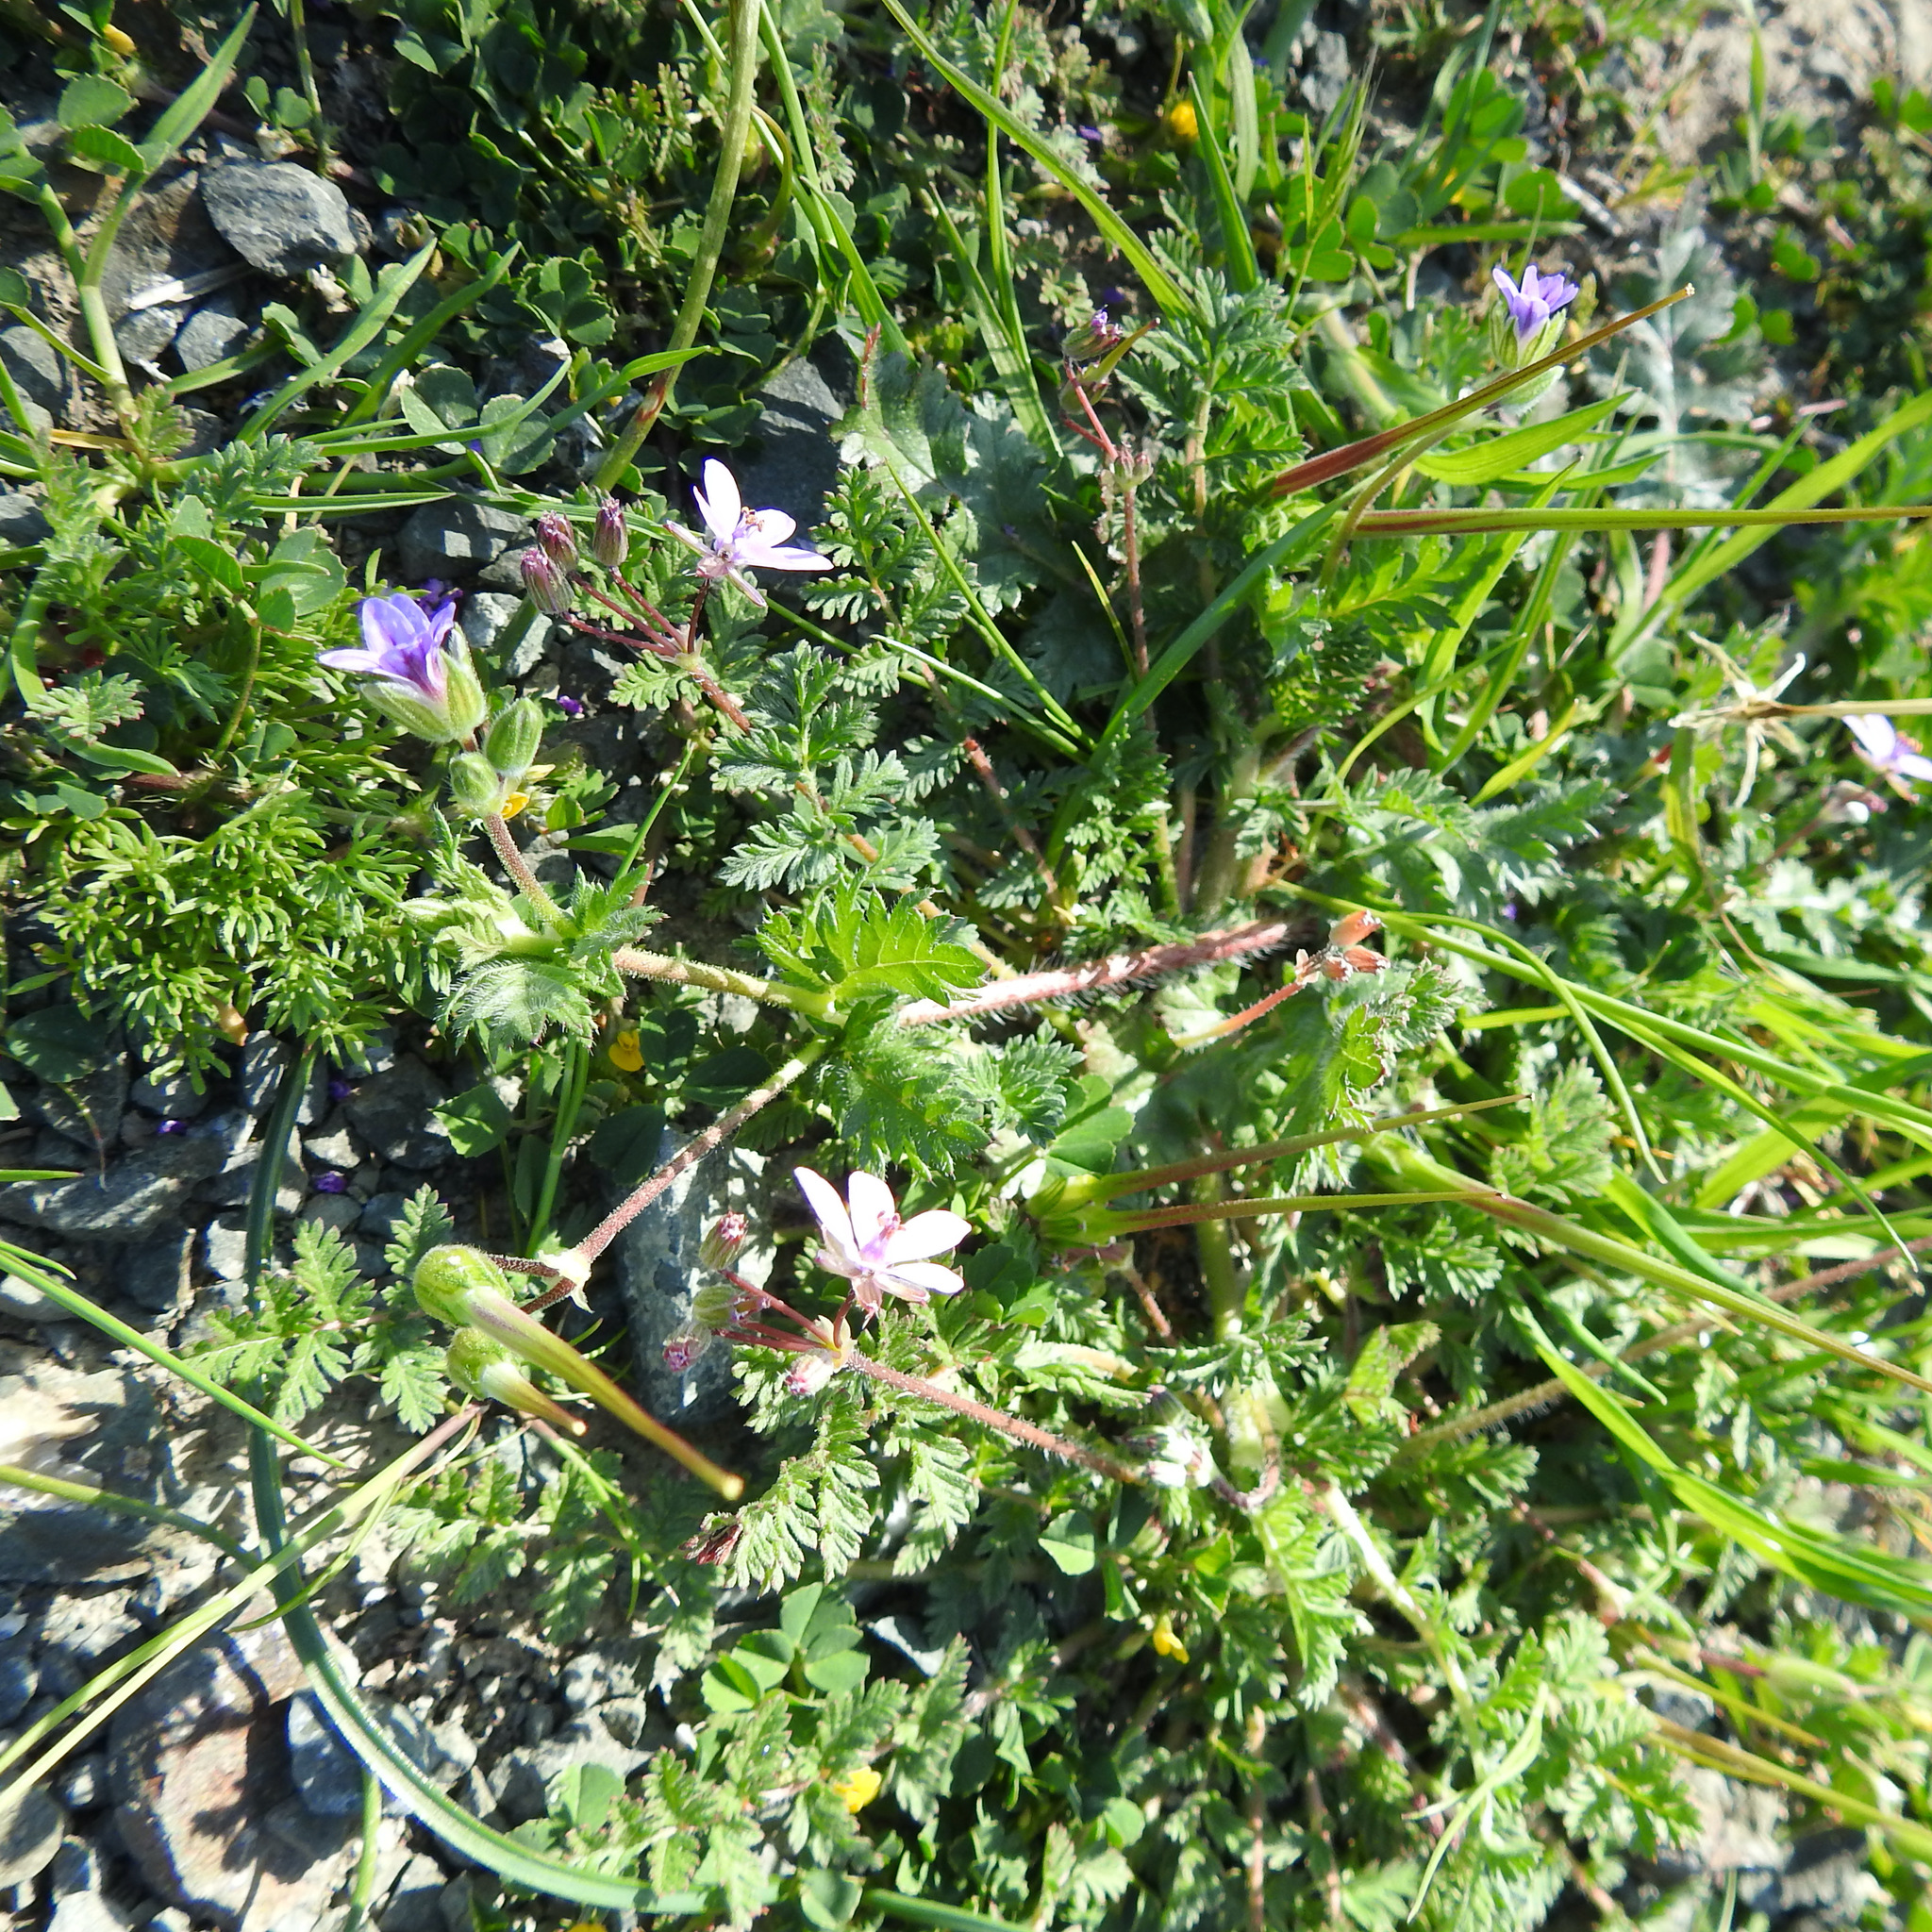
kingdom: Plantae
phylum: Tracheophyta
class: Magnoliopsida
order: Geraniales
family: Geraniaceae
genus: Erodium
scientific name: Erodium cicutarium
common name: Common stork's-bill
